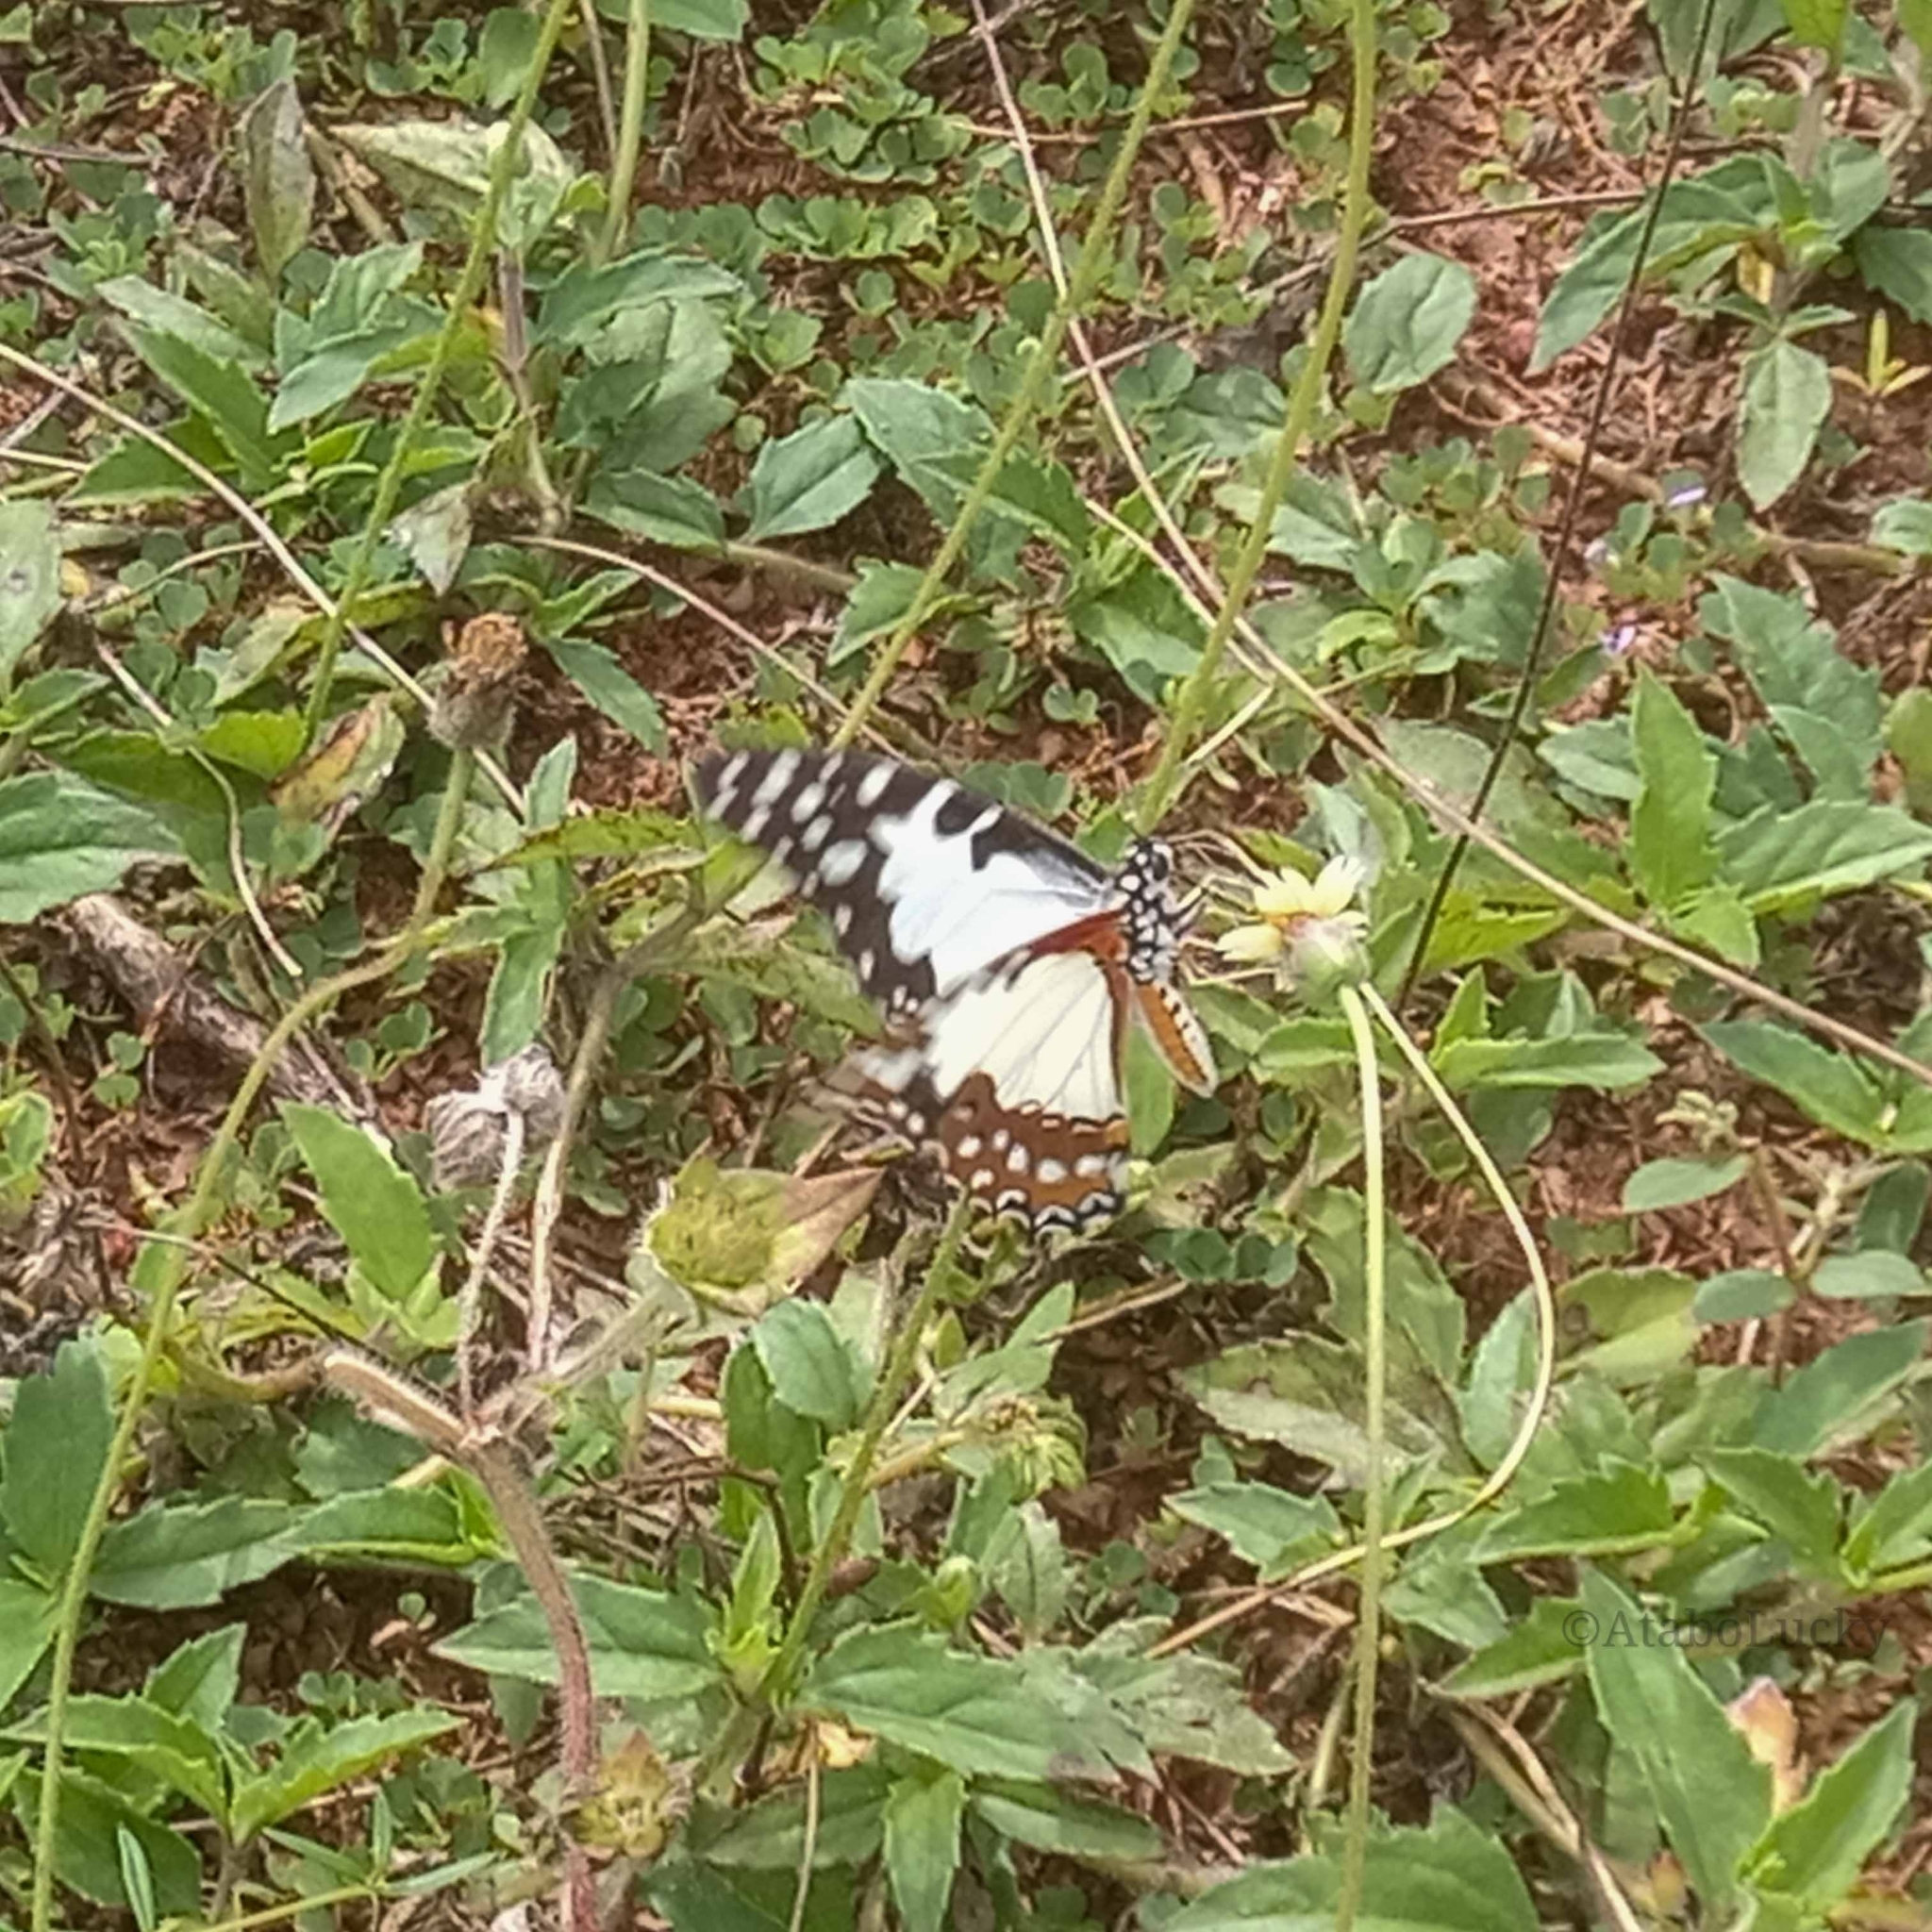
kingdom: Animalia
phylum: Arthropoda
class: Insecta
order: Lepidoptera
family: Papilionidae
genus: Graphium
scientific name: Graphium angolanus
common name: Angola white-lady swordtail
